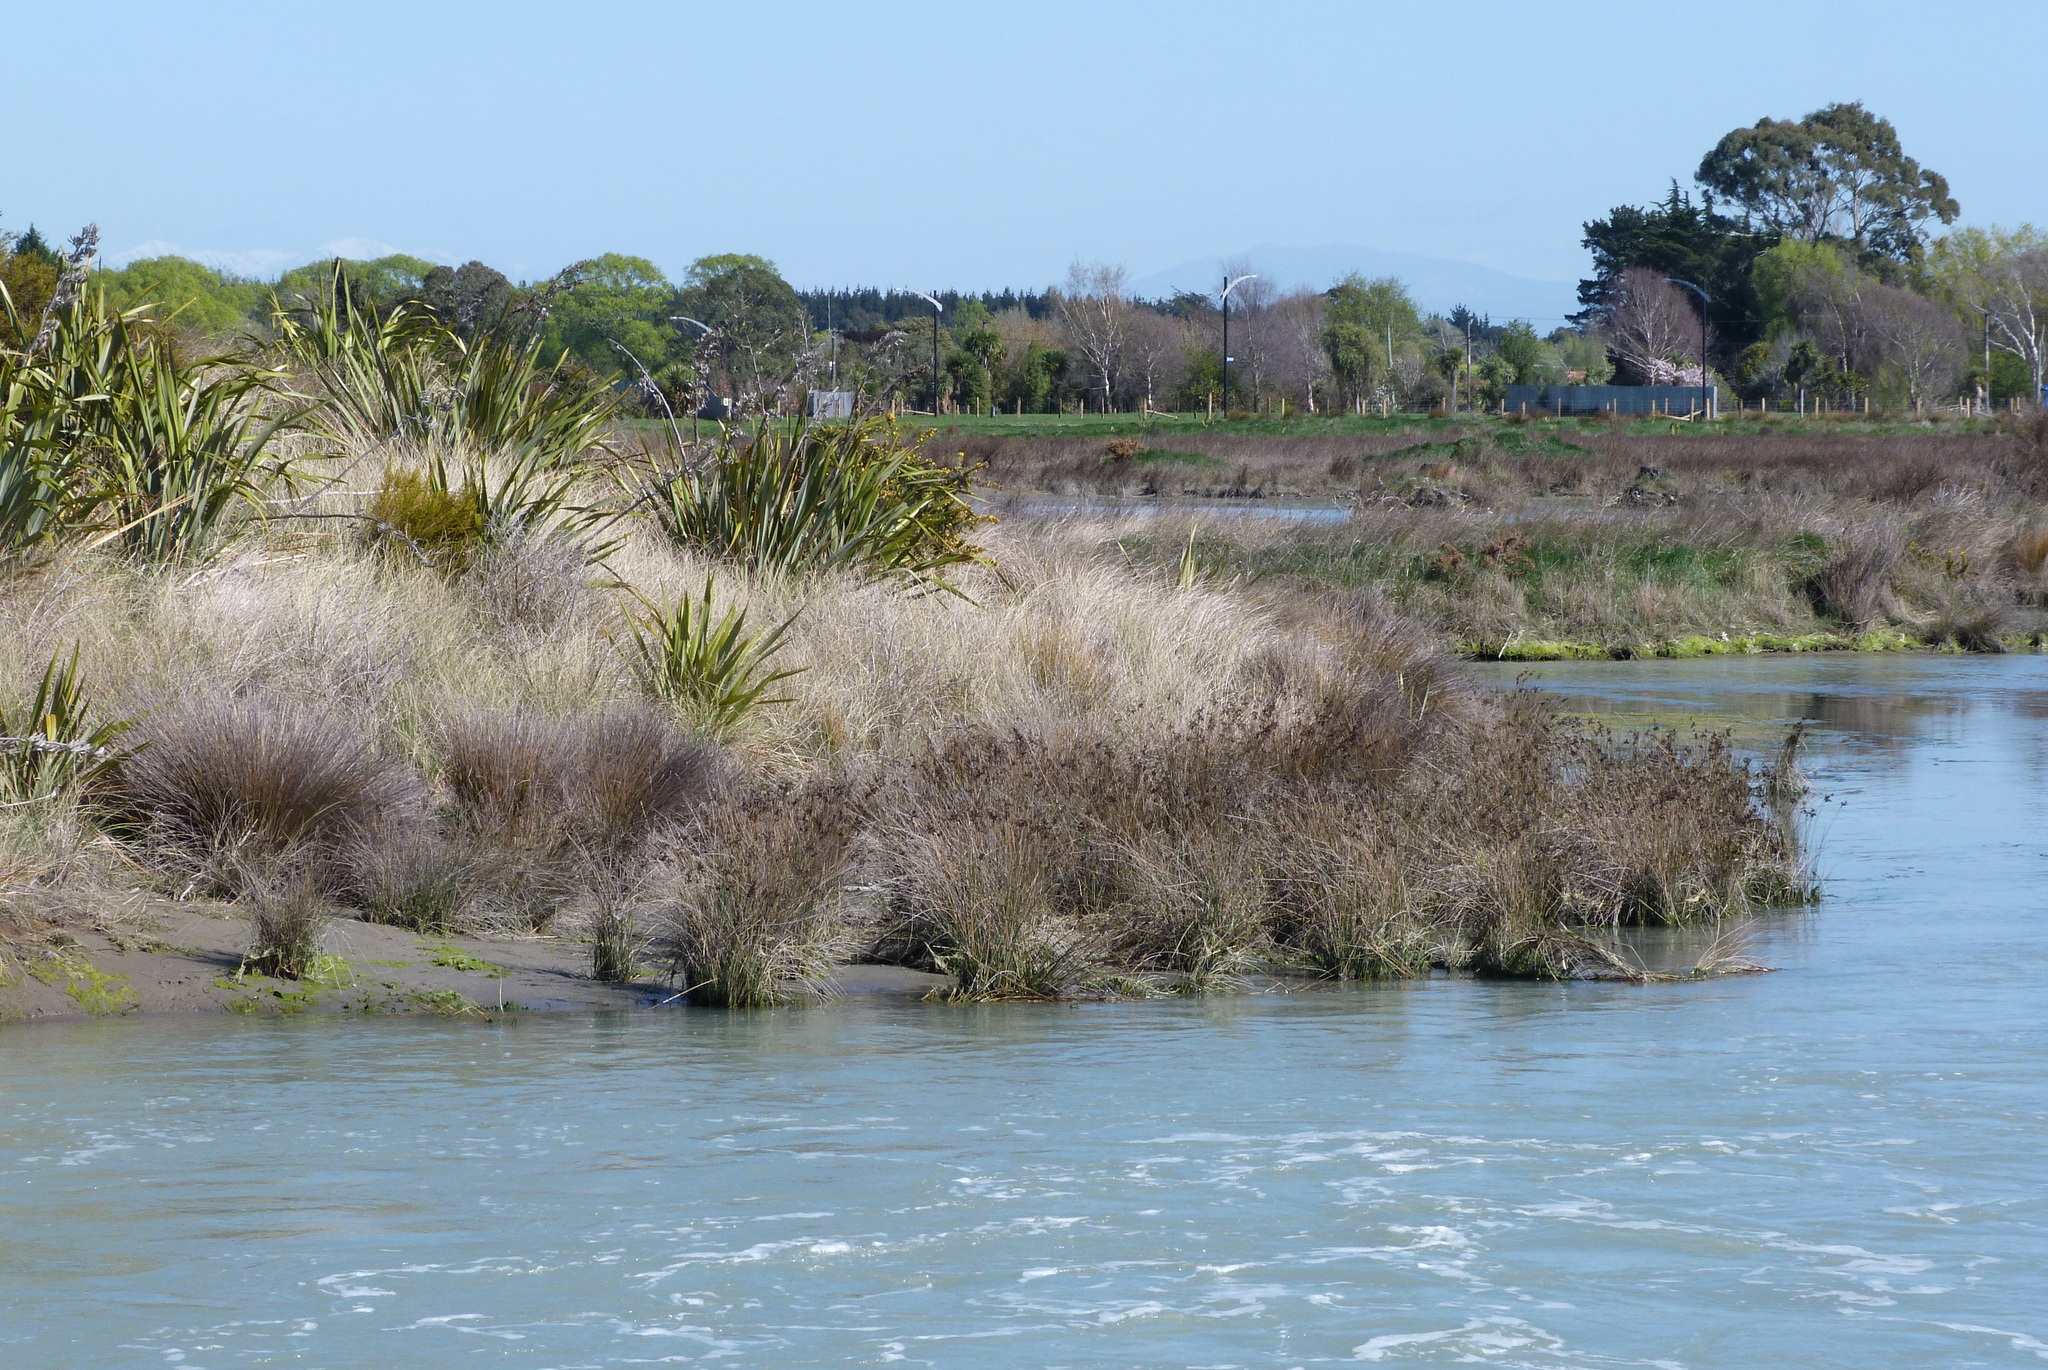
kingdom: Plantae
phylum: Tracheophyta
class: Liliopsida
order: Poales
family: Juncaceae
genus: Juncus
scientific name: Juncus kraussii
